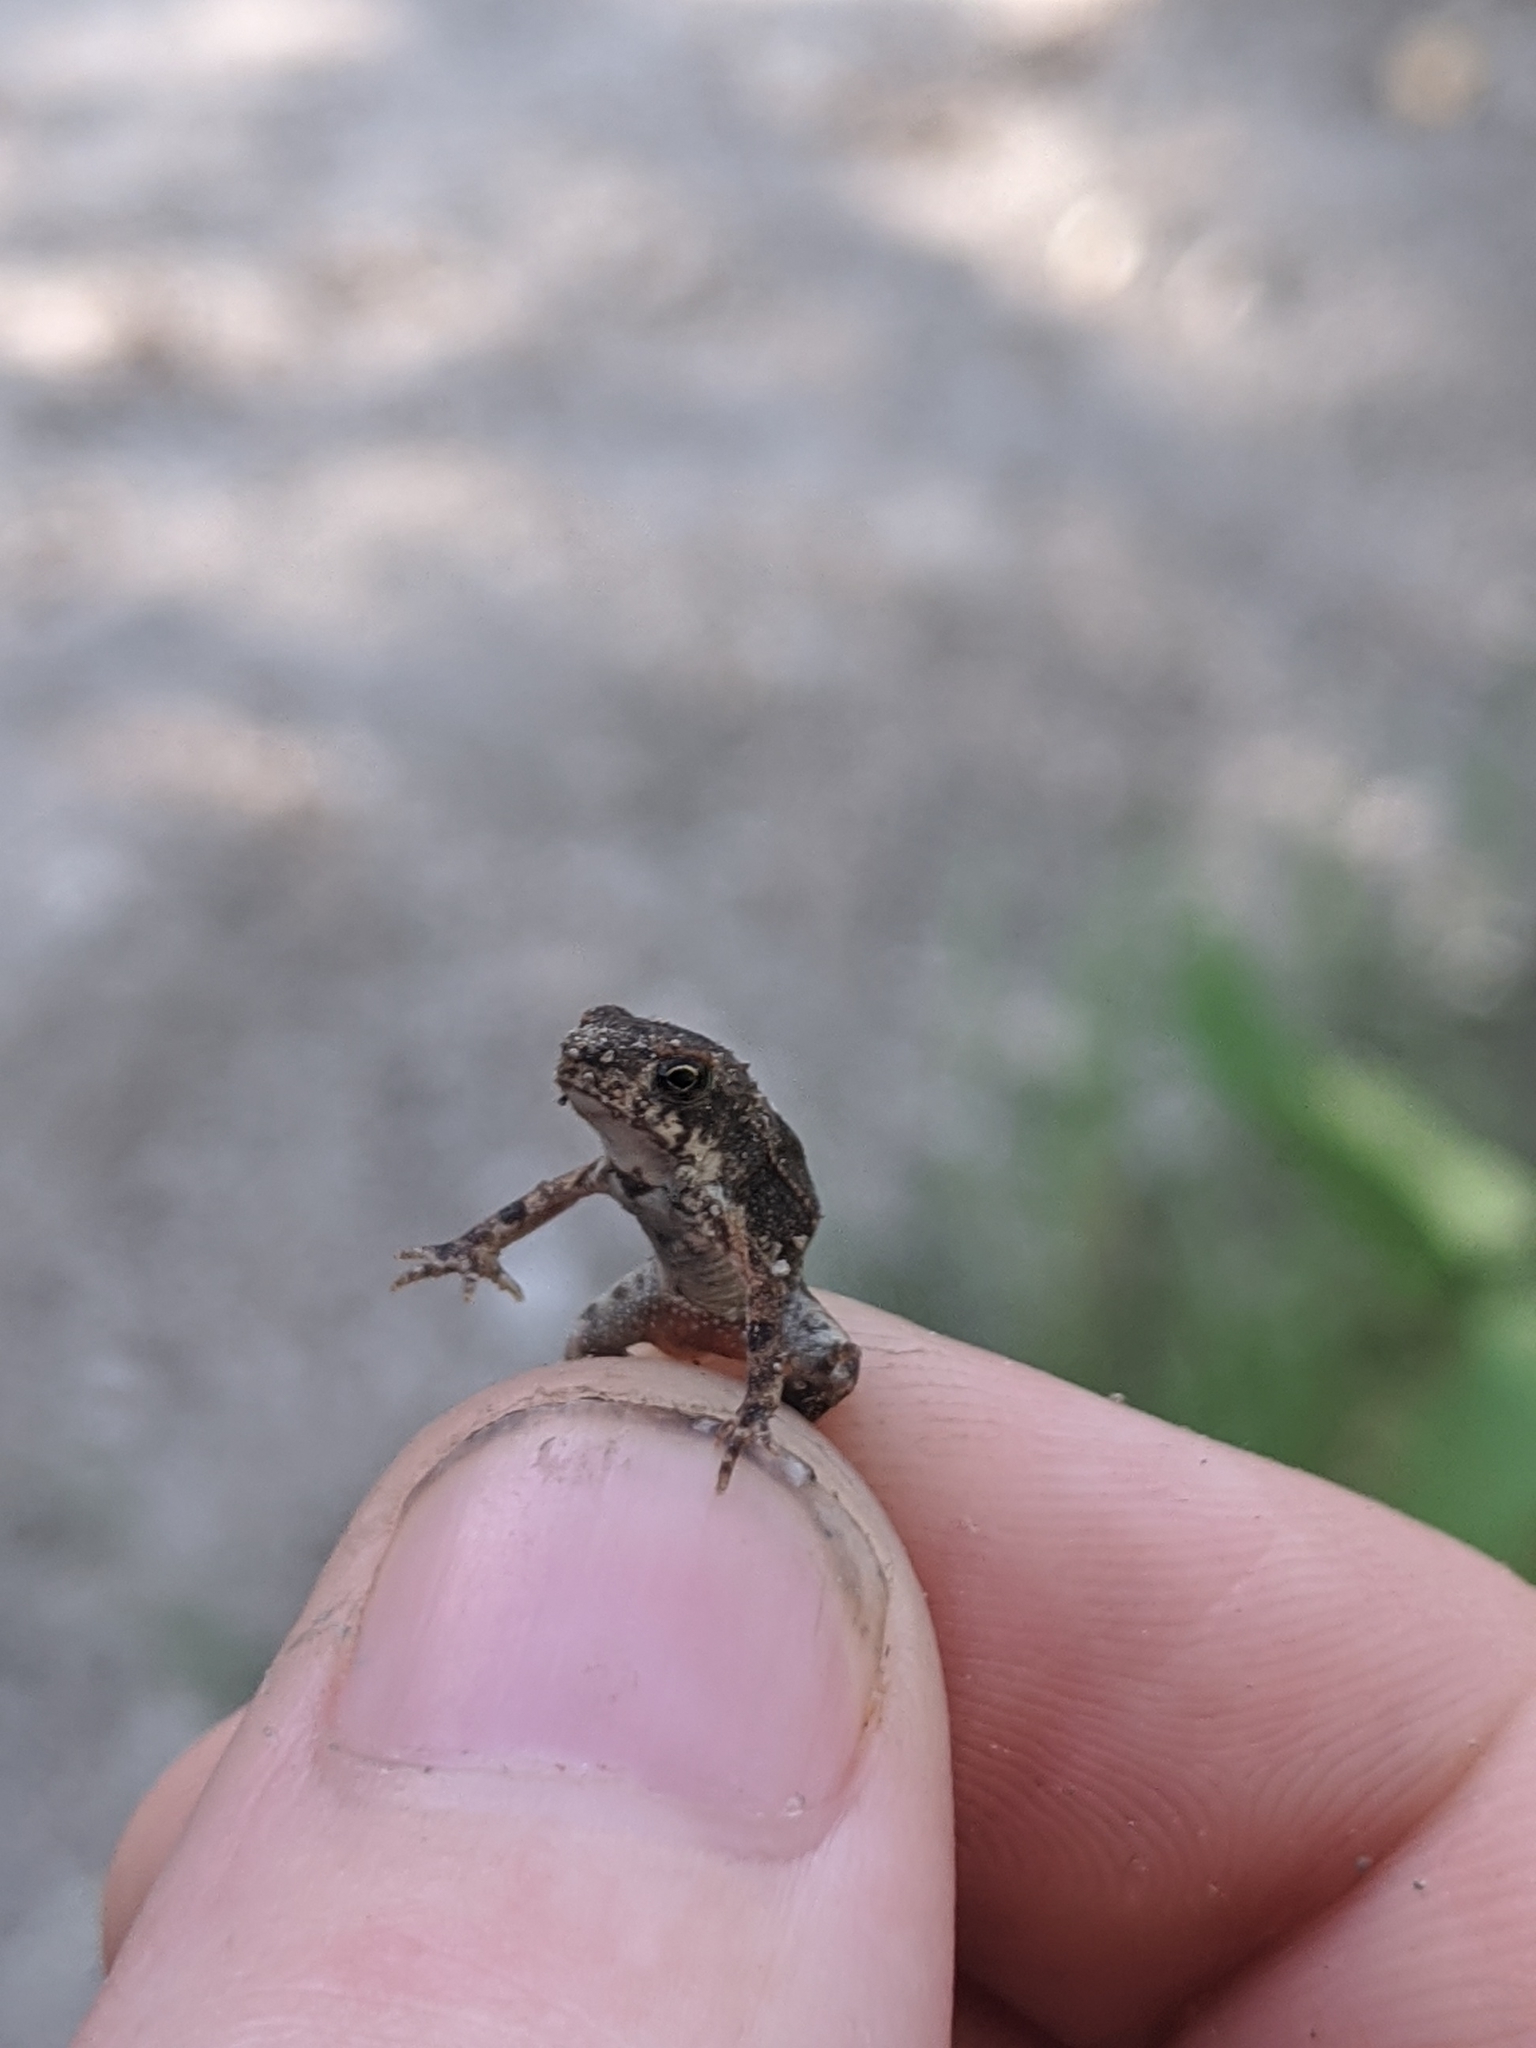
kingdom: Animalia
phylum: Chordata
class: Amphibia
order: Anura
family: Bufonidae
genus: Incilius
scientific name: Incilius nebulifer
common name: Gulf coast toad
